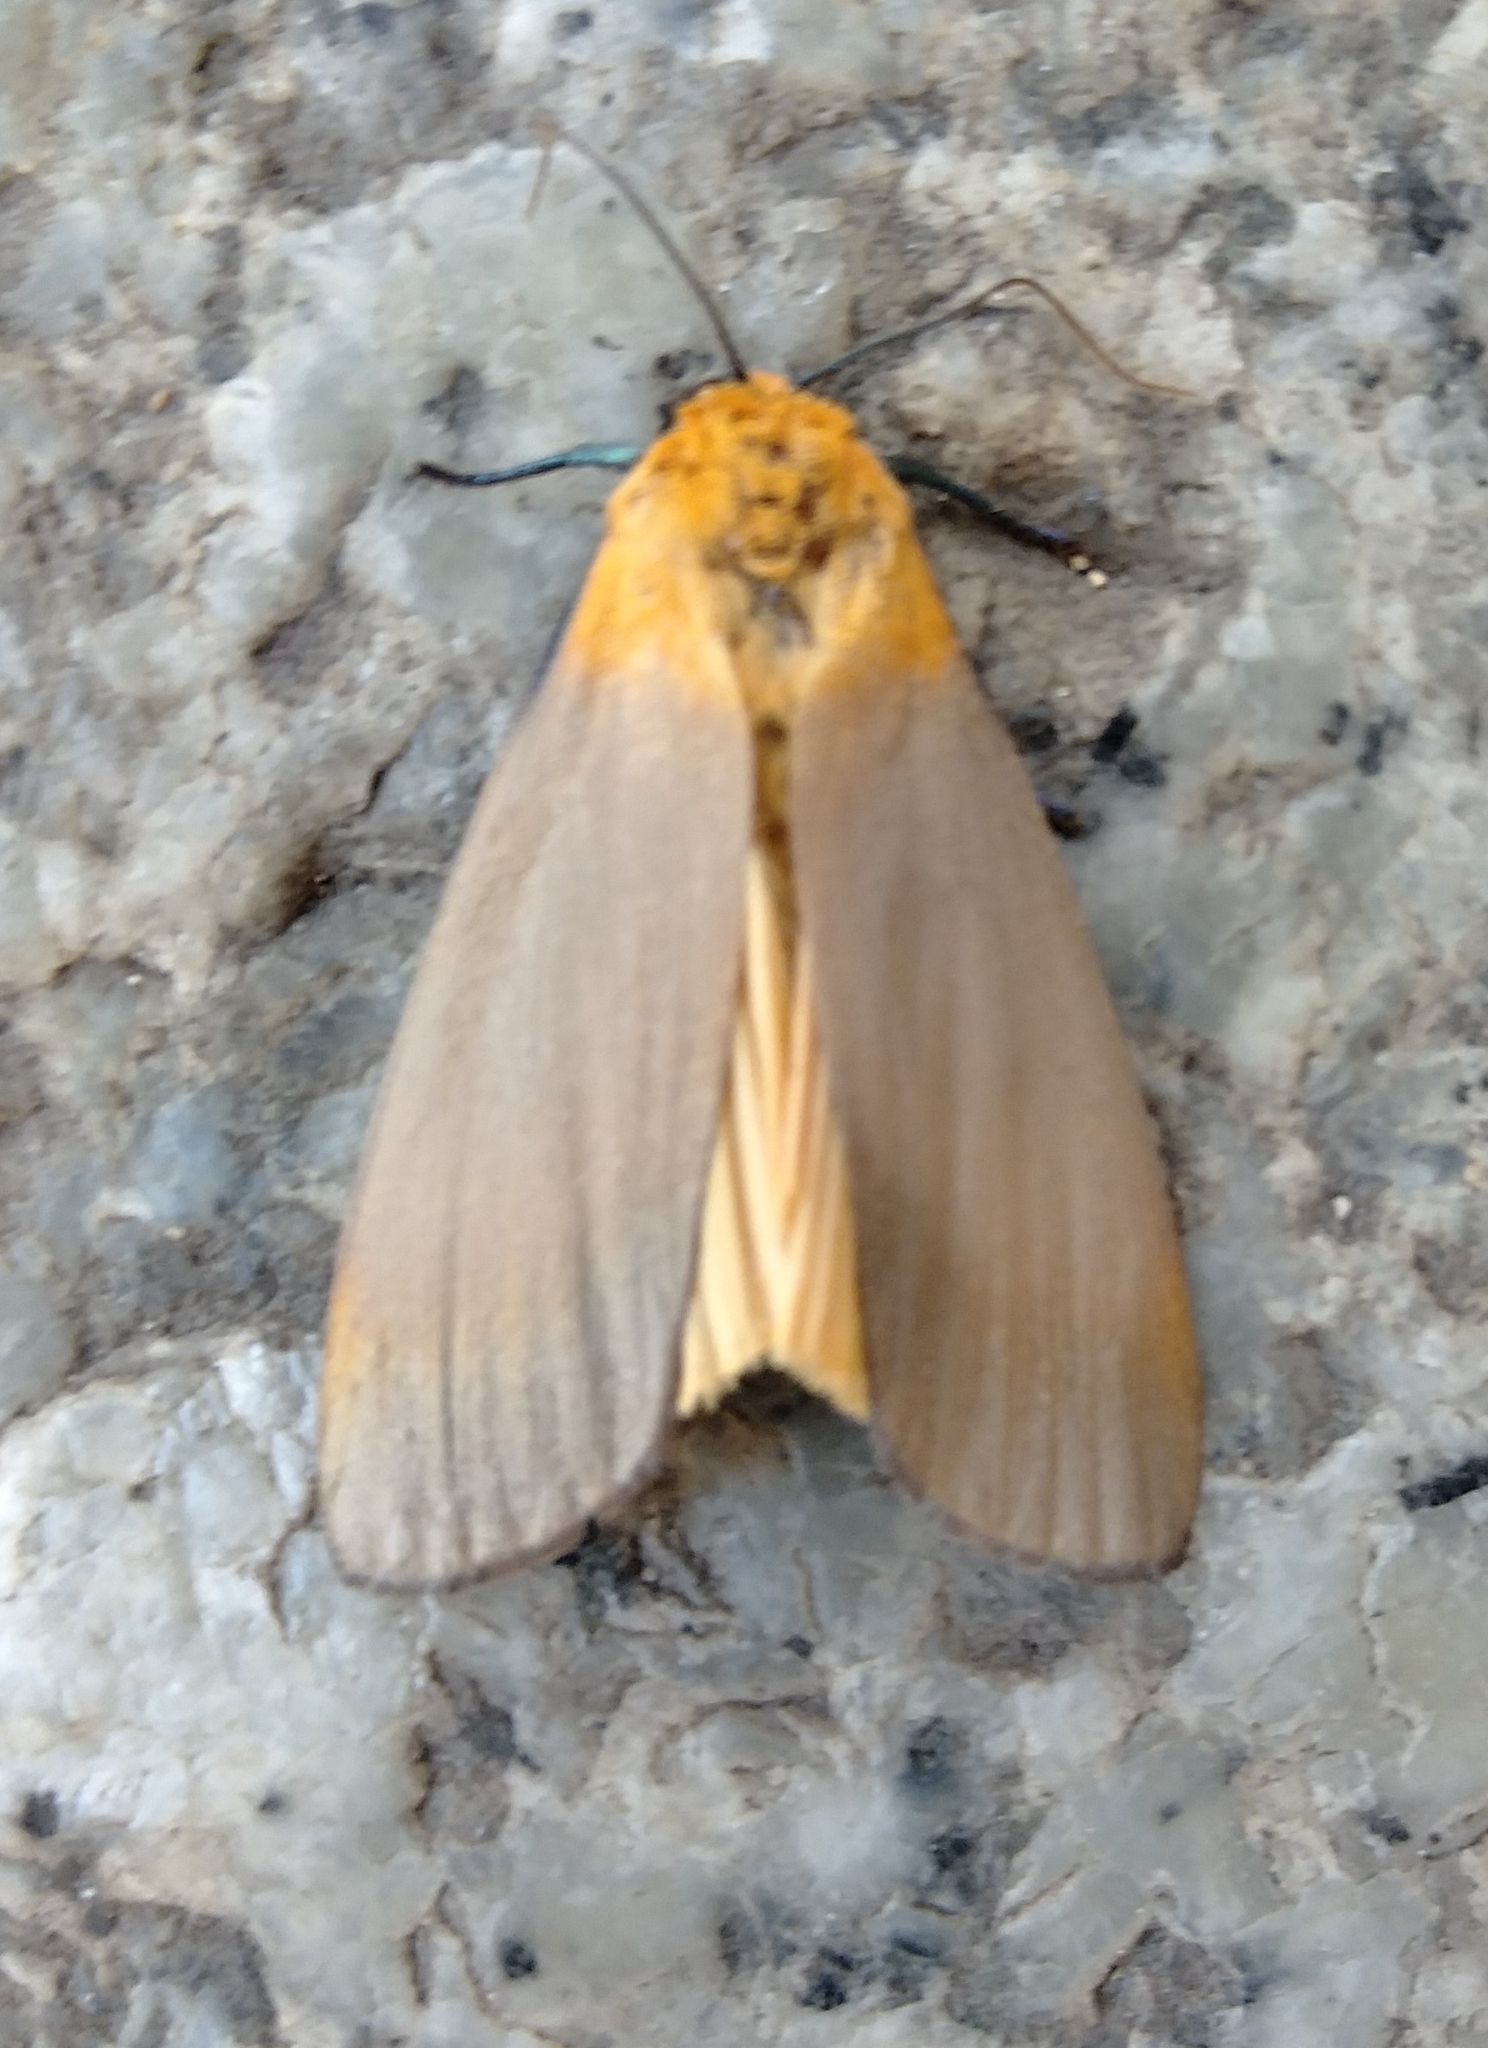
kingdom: Animalia
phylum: Arthropoda
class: Insecta
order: Lepidoptera
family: Erebidae
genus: Lithosia
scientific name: Lithosia quadra
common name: Four-spotted footman
